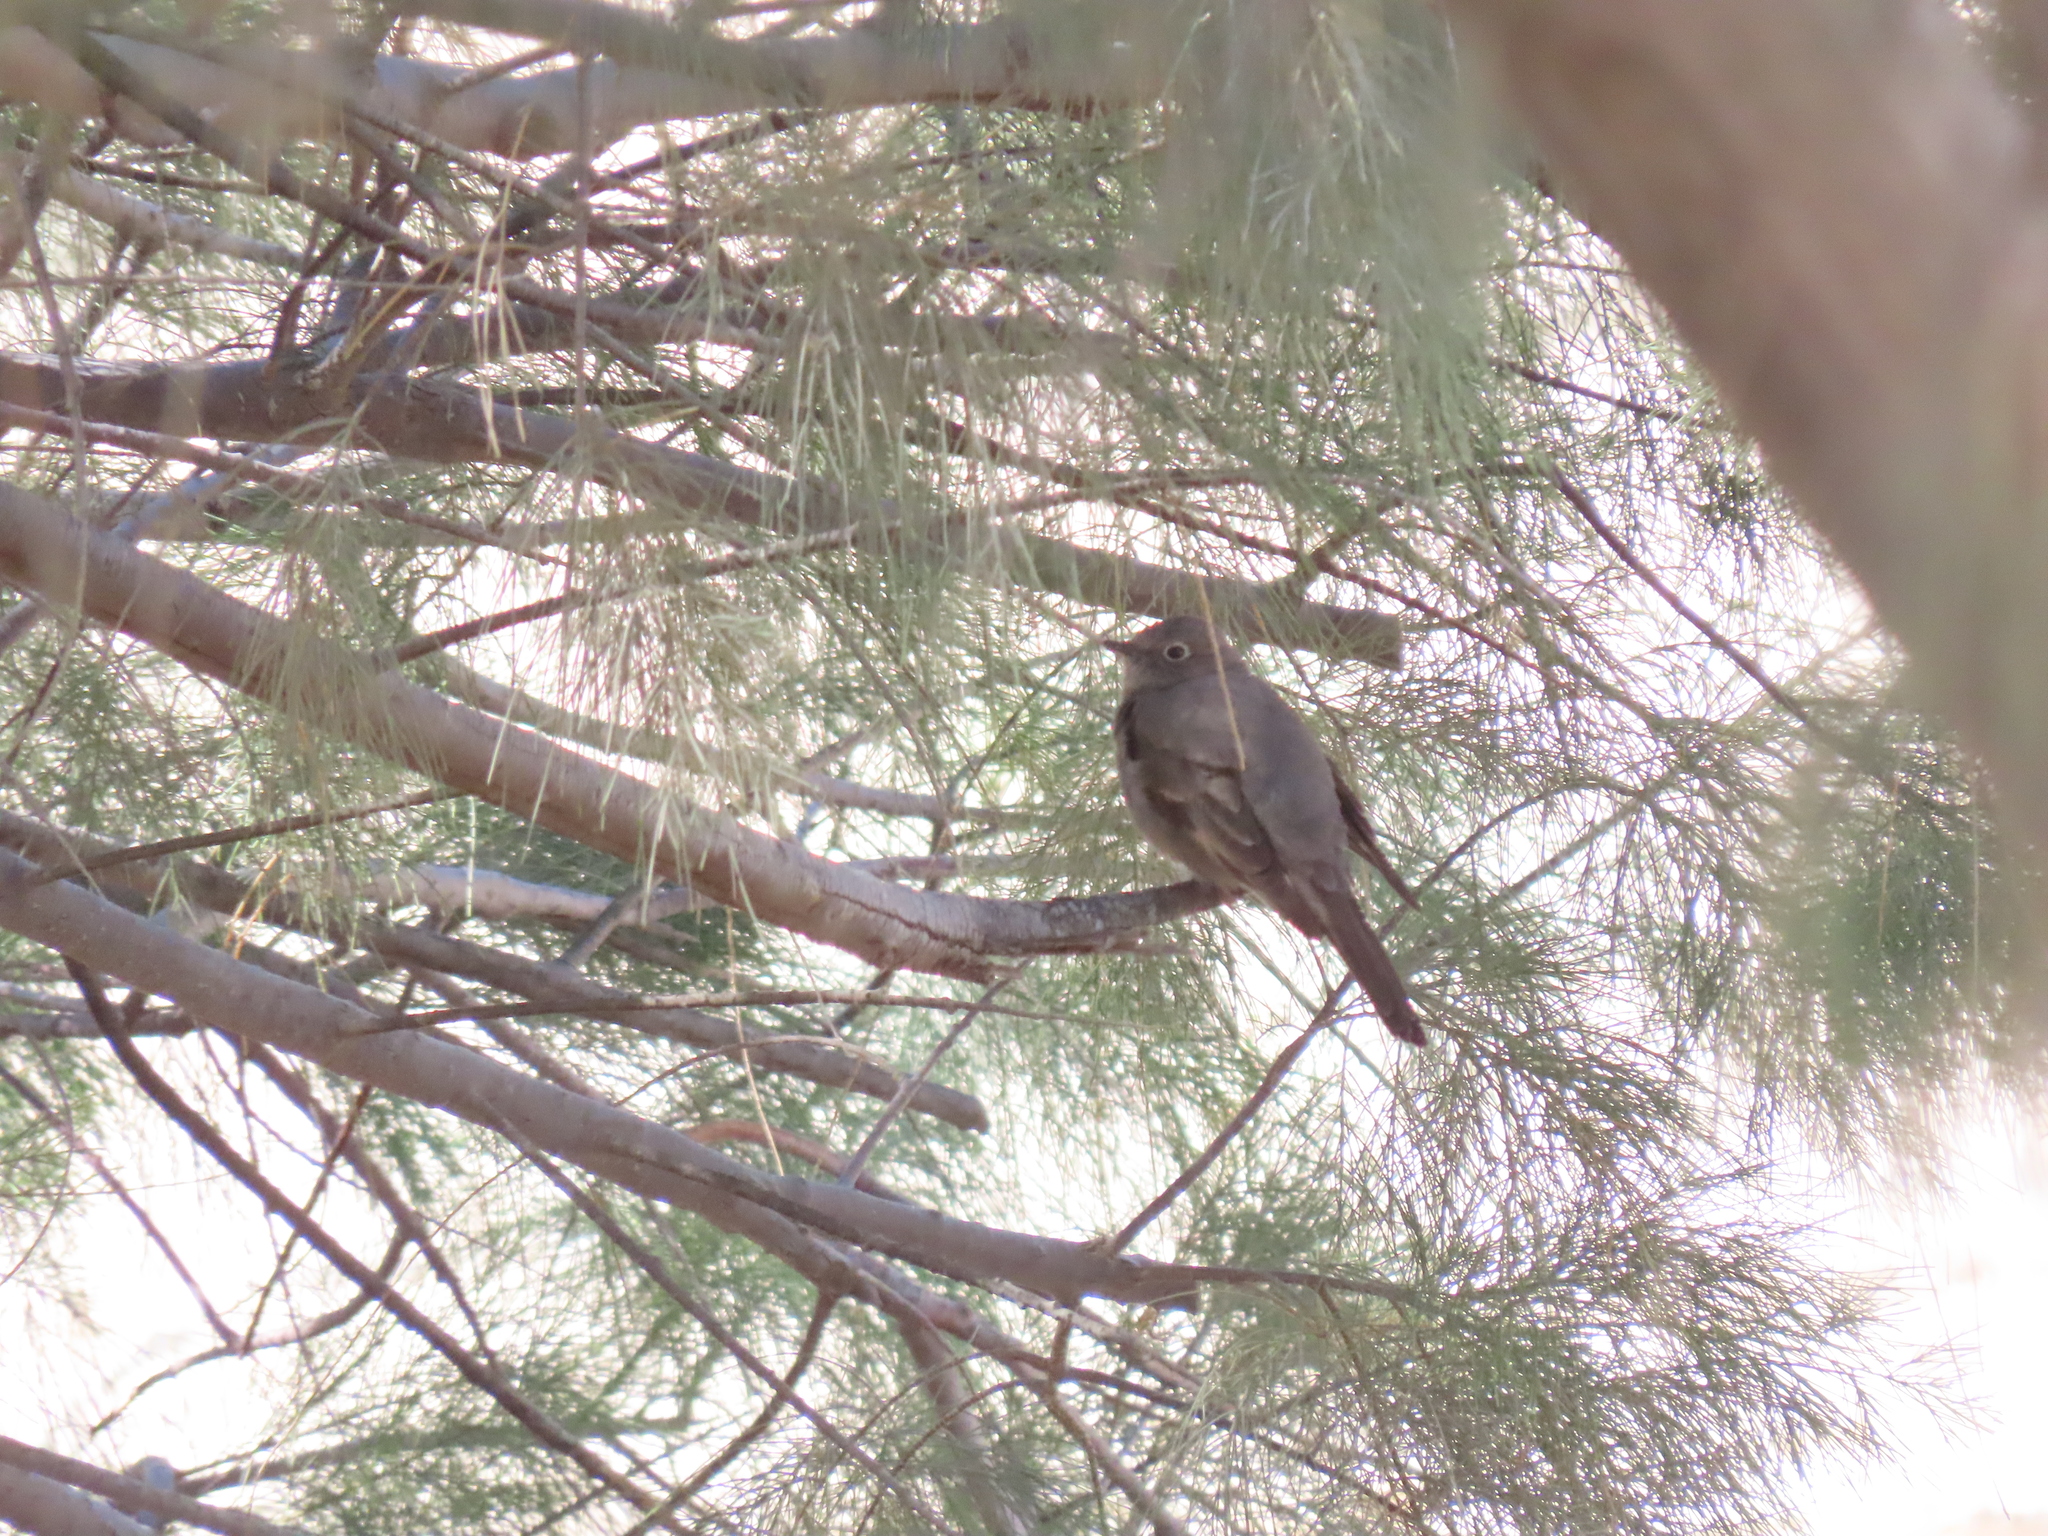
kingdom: Animalia
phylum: Chordata
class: Aves
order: Passeriformes
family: Turdidae
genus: Myadestes
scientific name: Myadestes townsendi
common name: Townsend's solitaire
